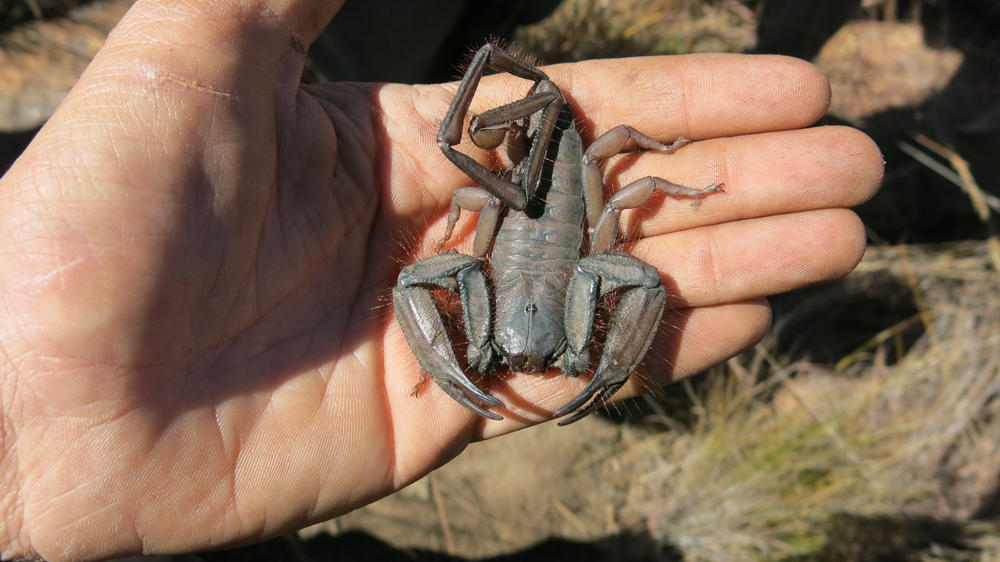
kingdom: Animalia
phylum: Arthropoda
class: Arachnida
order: Scorpiones
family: Hormuridae
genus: Hadogenes
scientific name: Hadogenes troglodytes
